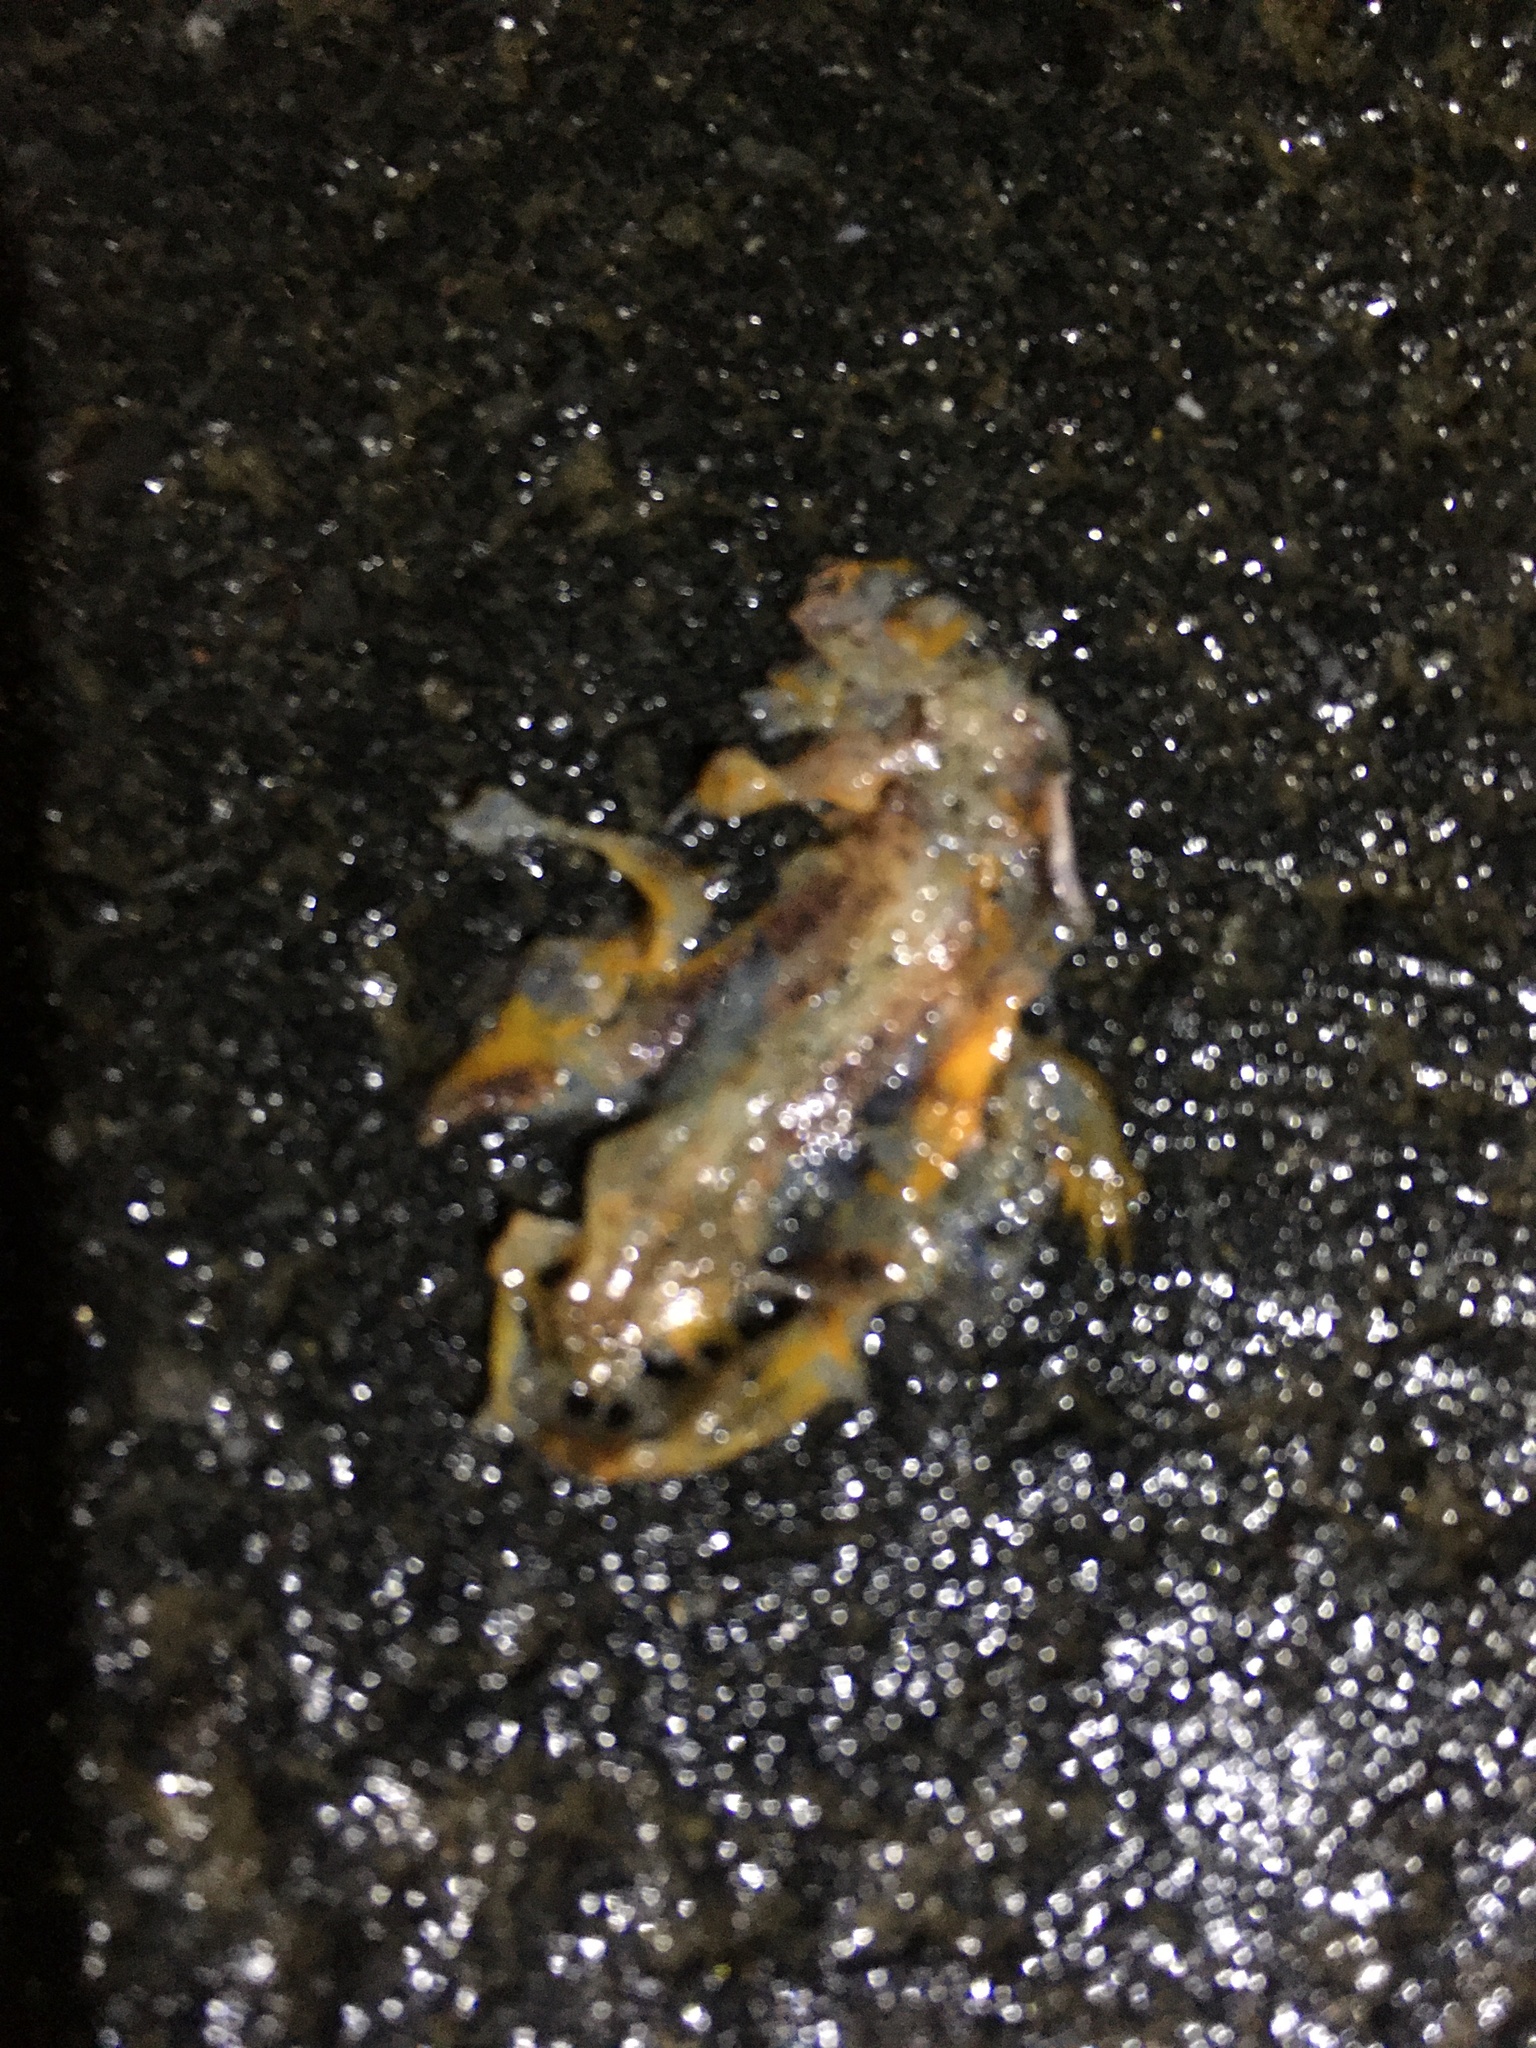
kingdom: Animalia
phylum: Chordata
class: Amphibia
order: Caudata
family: Salamandridae
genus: Taricha
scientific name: Taricha
